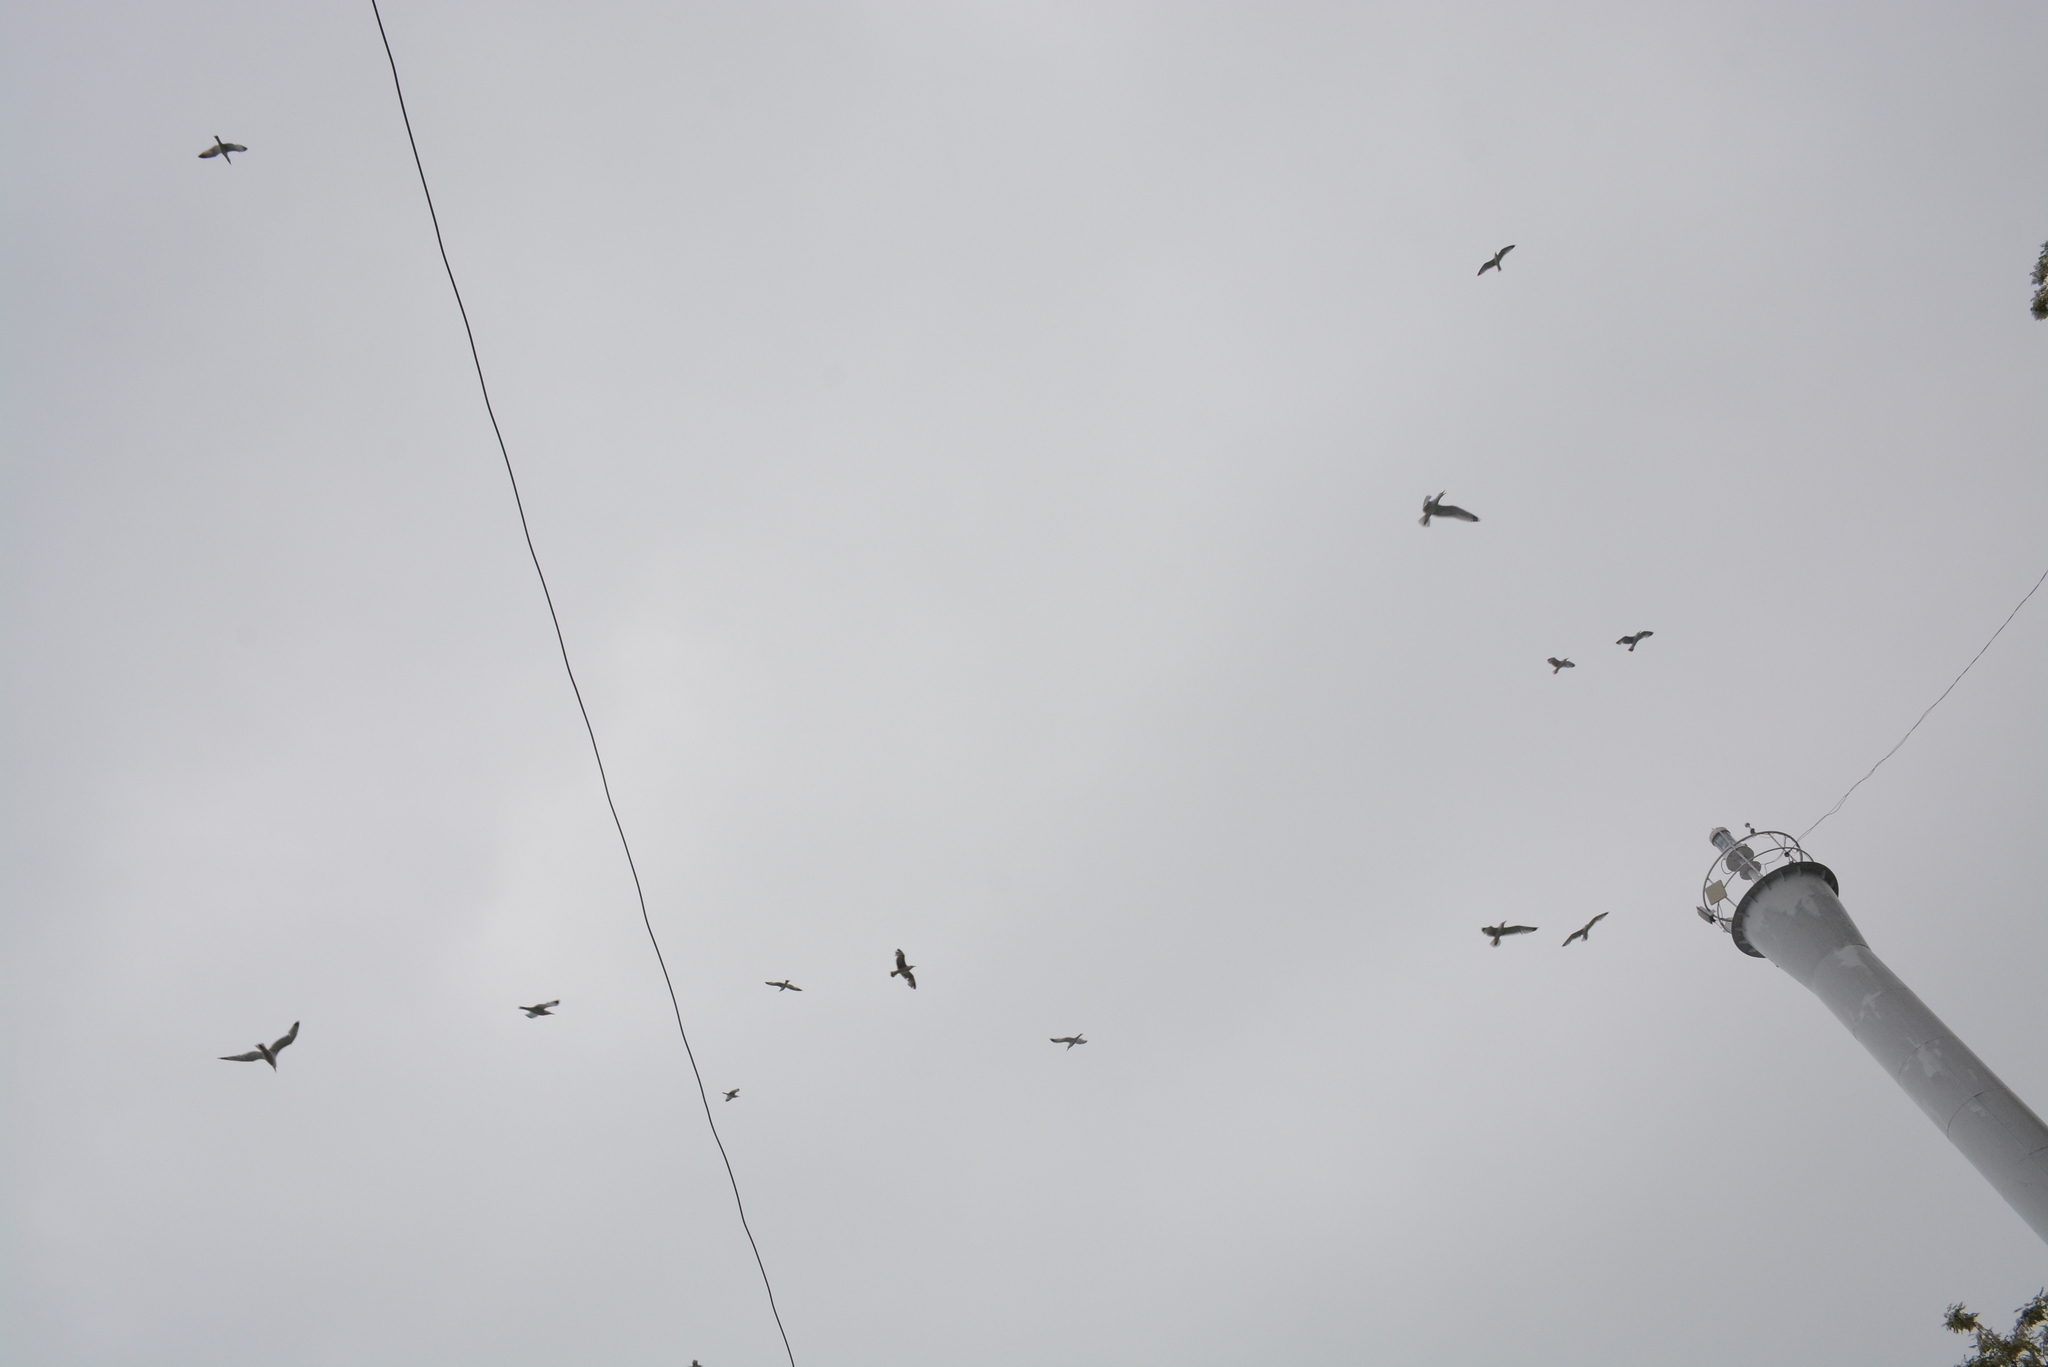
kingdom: Animalia
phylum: Chordata
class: Aves
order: Charadriiformes
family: Laridae
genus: Larus
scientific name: Larus michahellis
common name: Yellow-legged gull
